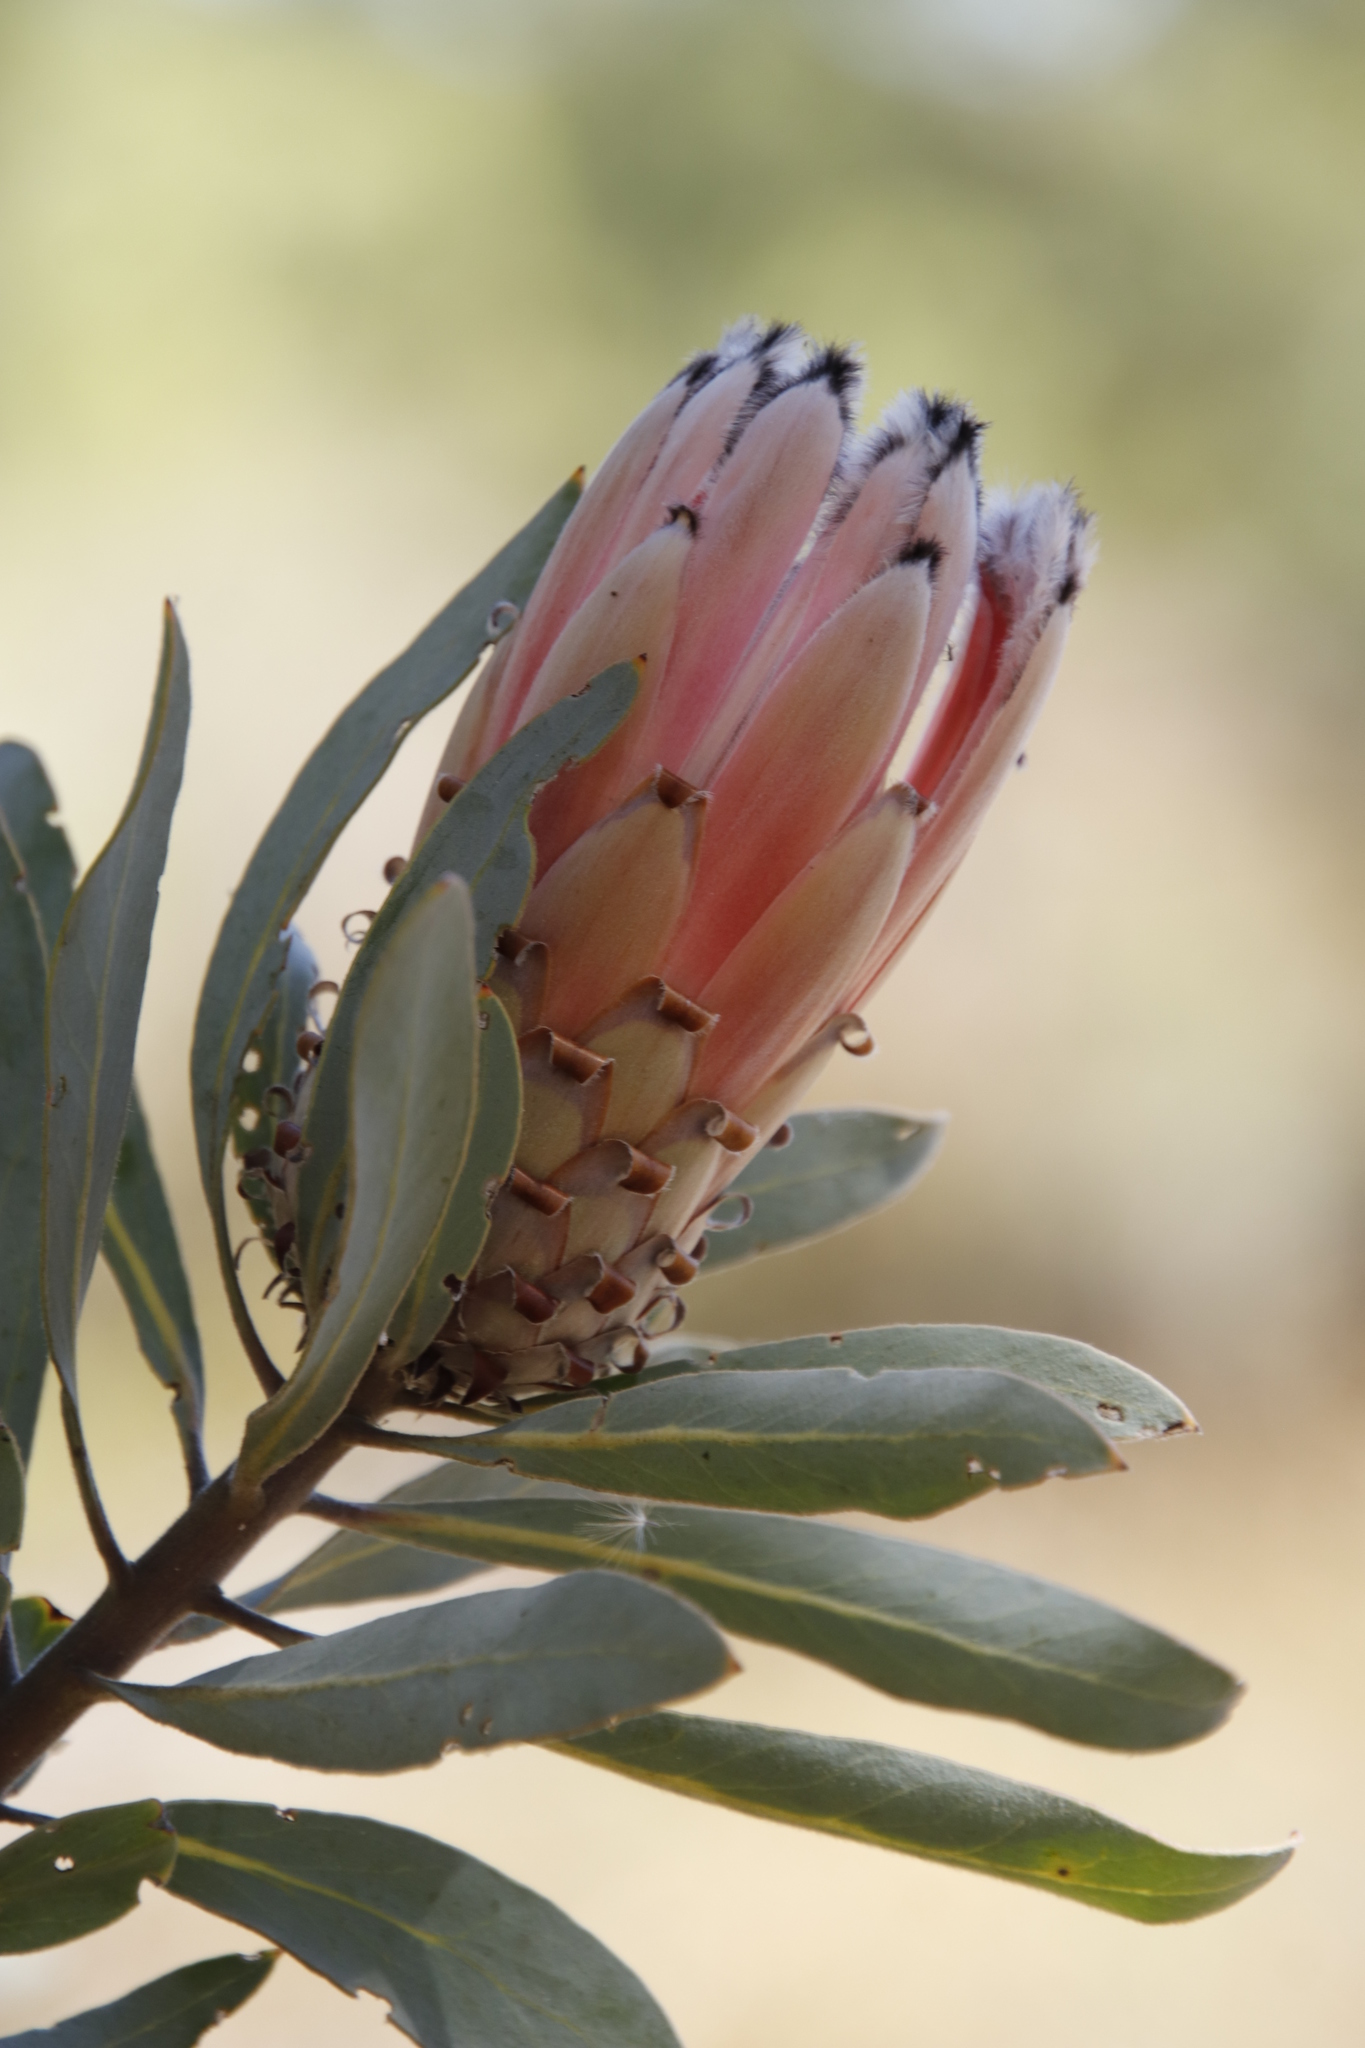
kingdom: Plantae
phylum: Tracheophyta
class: Magnoliopsida
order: Proteales
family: Proteaceae
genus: Protea
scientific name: Protea laurifolia
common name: Grey-leaf sugarbsh
